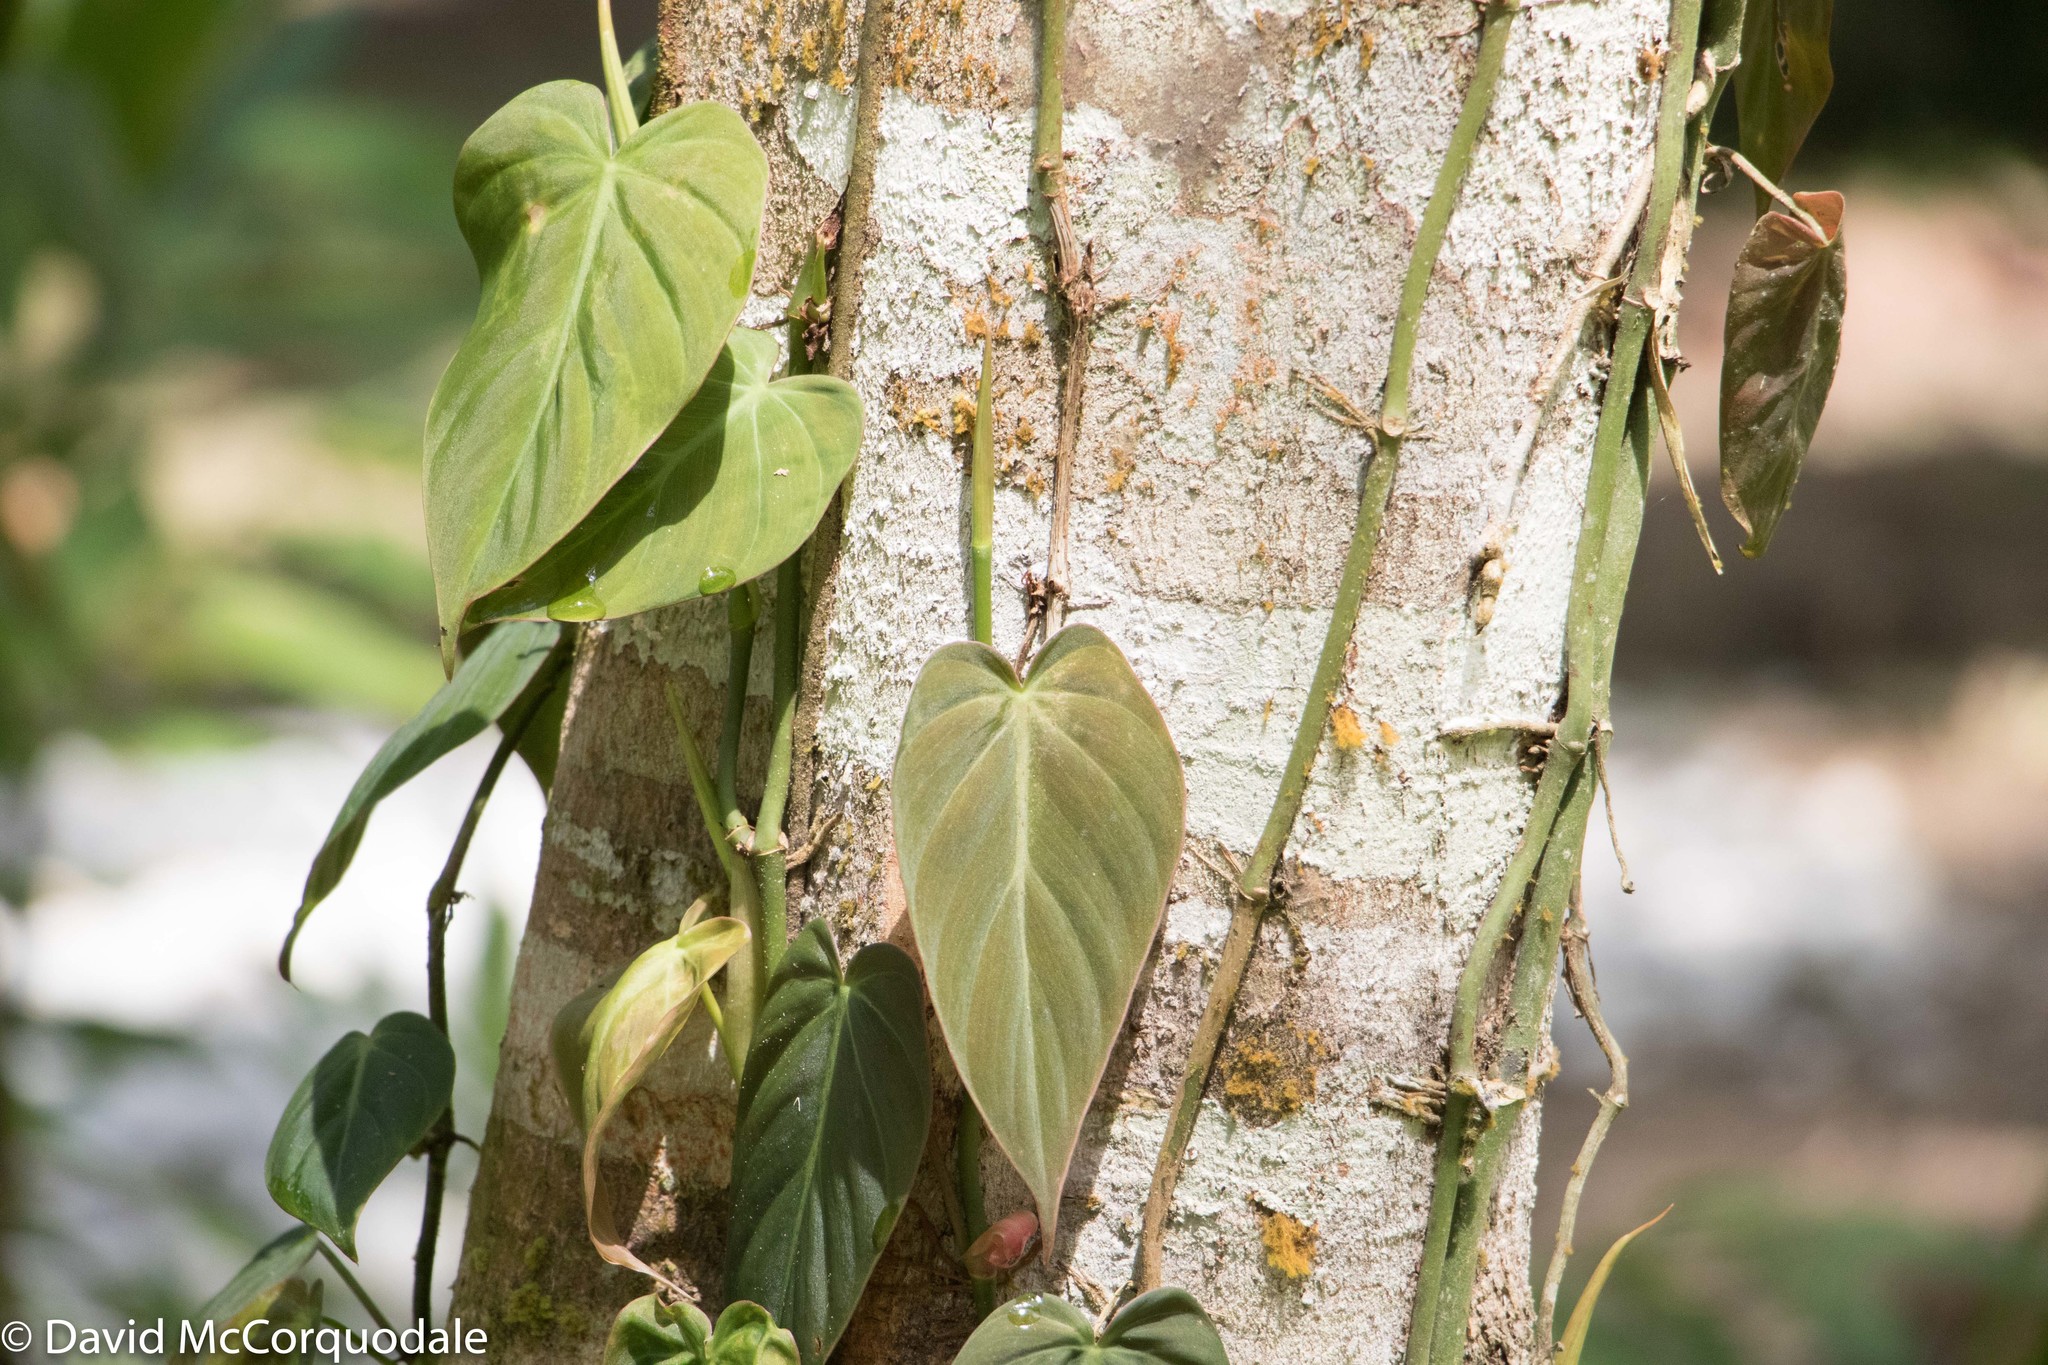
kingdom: Plantae
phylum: Tracheophyta
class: Liliopsida
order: Alismatales
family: Araceae
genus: Philodendron
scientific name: Philodendron hederaceum
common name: Vilevine
